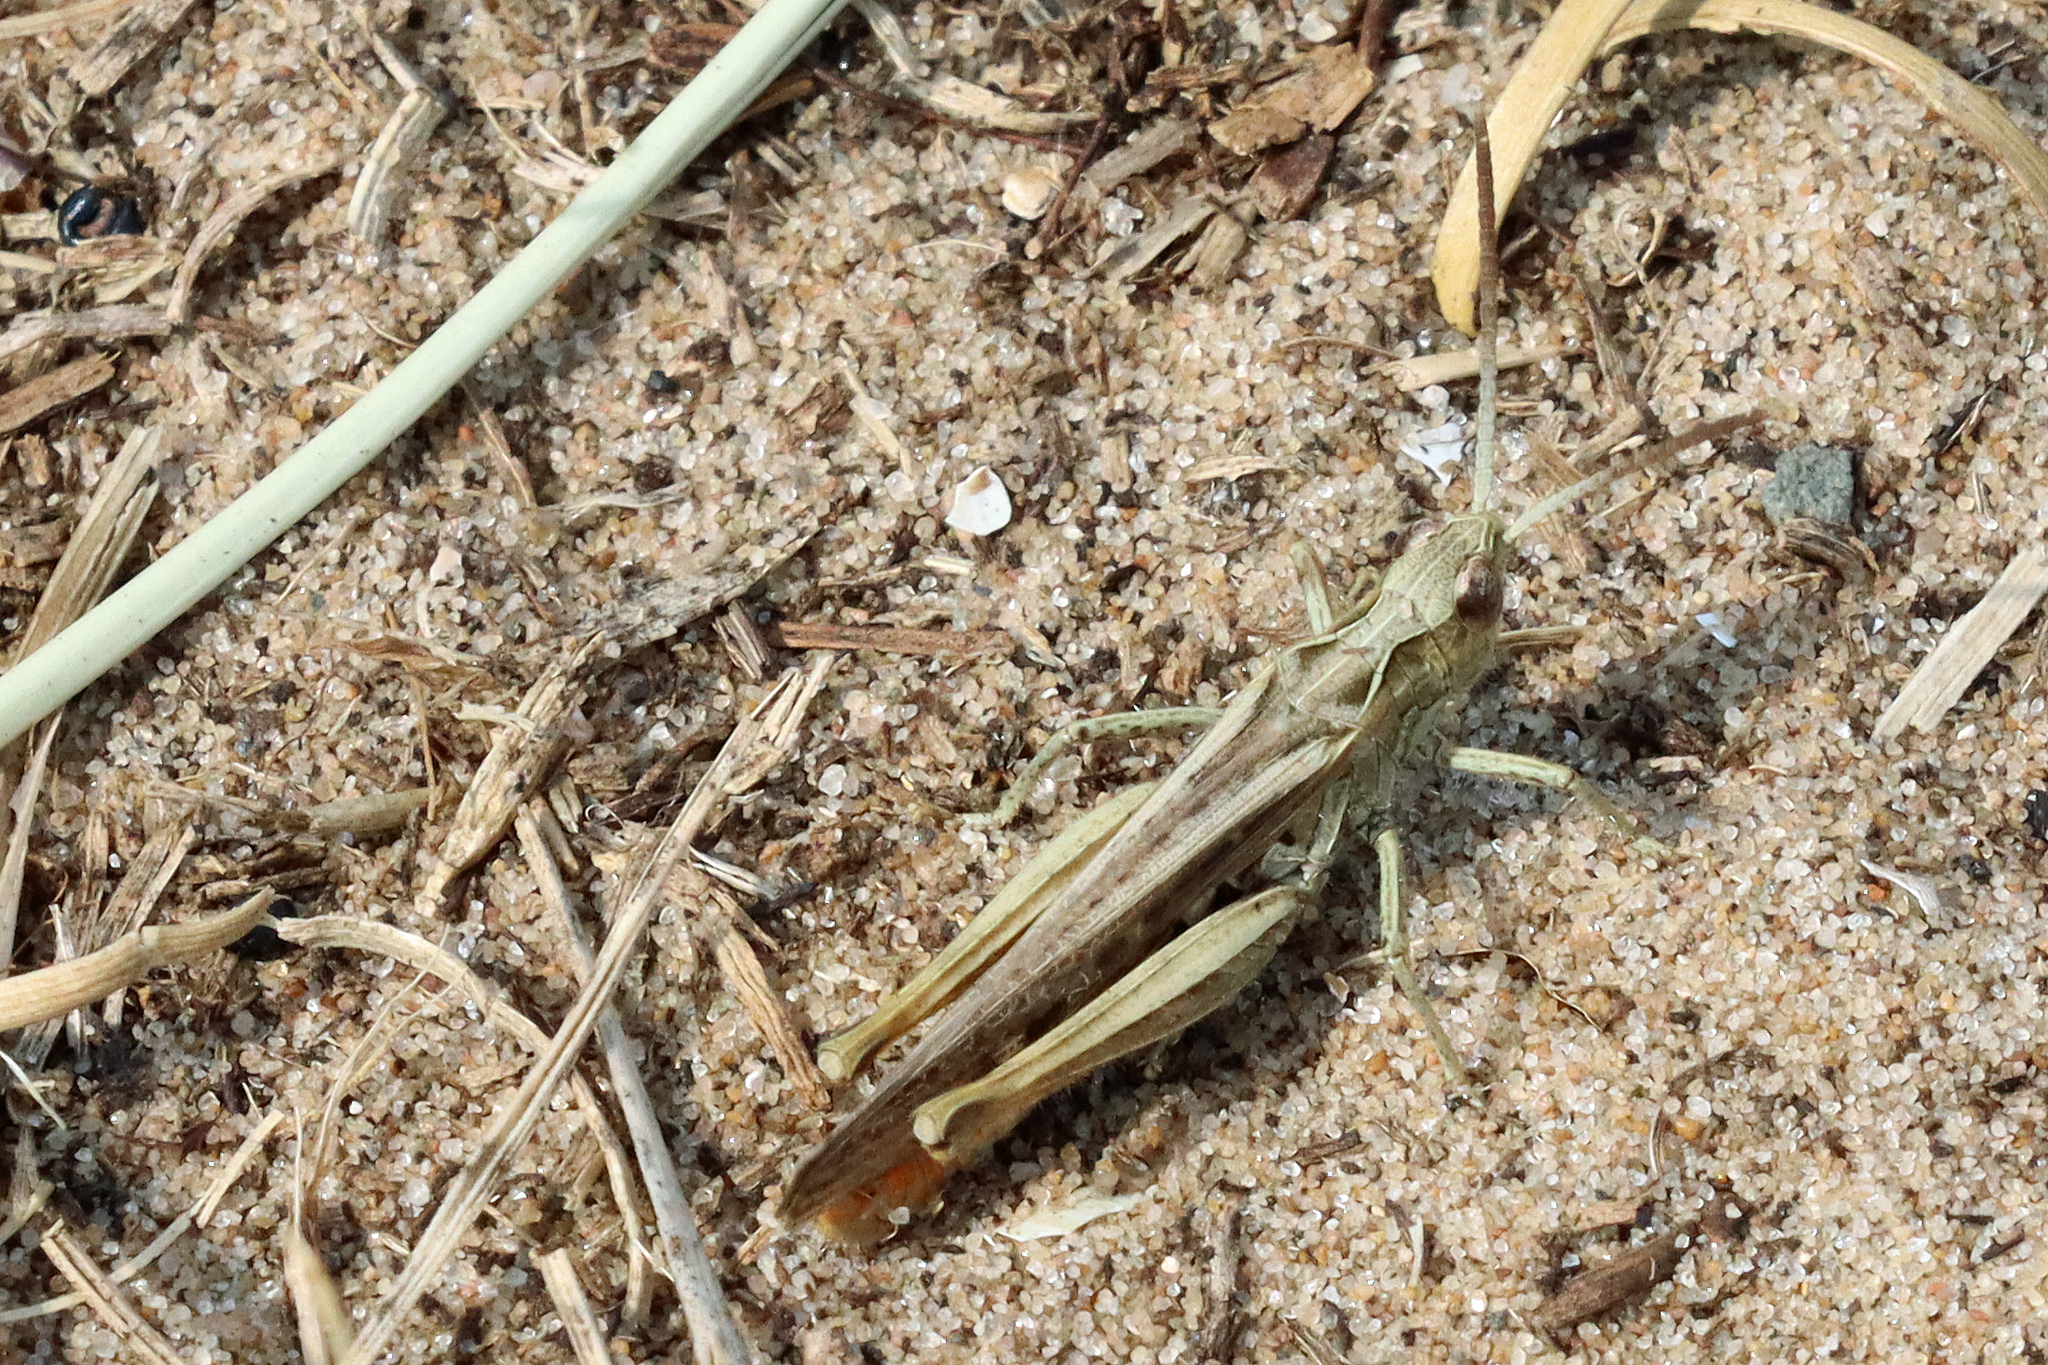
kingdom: Animalia
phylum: Arthropoda
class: Insecta
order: Orthoptera
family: Acrididae
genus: Chorthippus
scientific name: Chorthippus brunneus
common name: Field grasshopper
